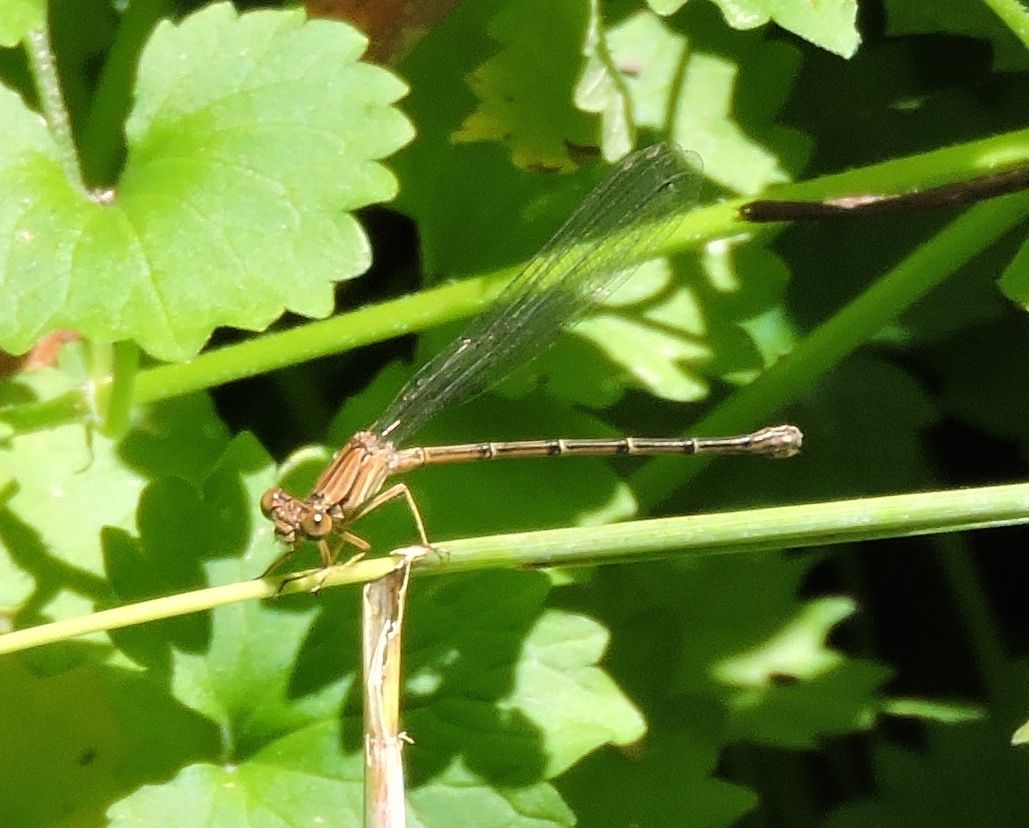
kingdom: Animalia
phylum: Arthropoda
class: Insecta
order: Odonata
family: Coenagrionidae
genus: Argia
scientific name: Argia apicalis
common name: Blue-fronted dancer
